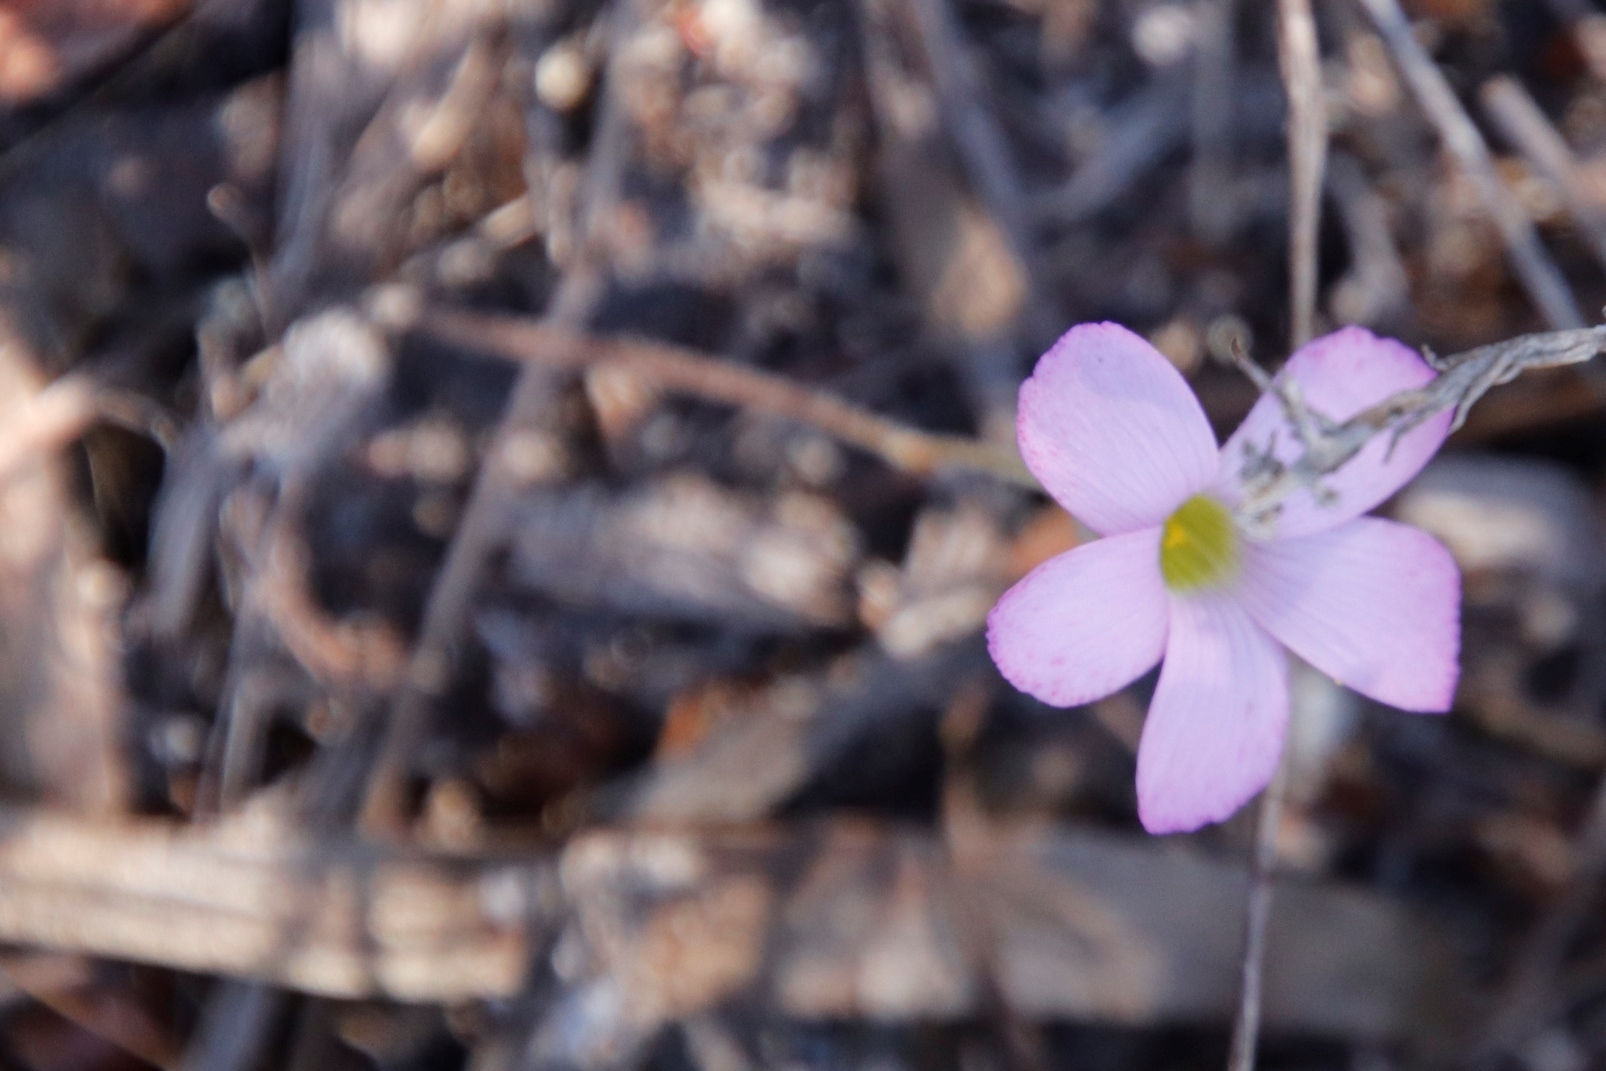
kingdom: Plantae
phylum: Tracheophyta
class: Magnoliopsida
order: Oxalidales
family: Oxalidaceae
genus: Oxalis
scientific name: Oxalis truncatula
